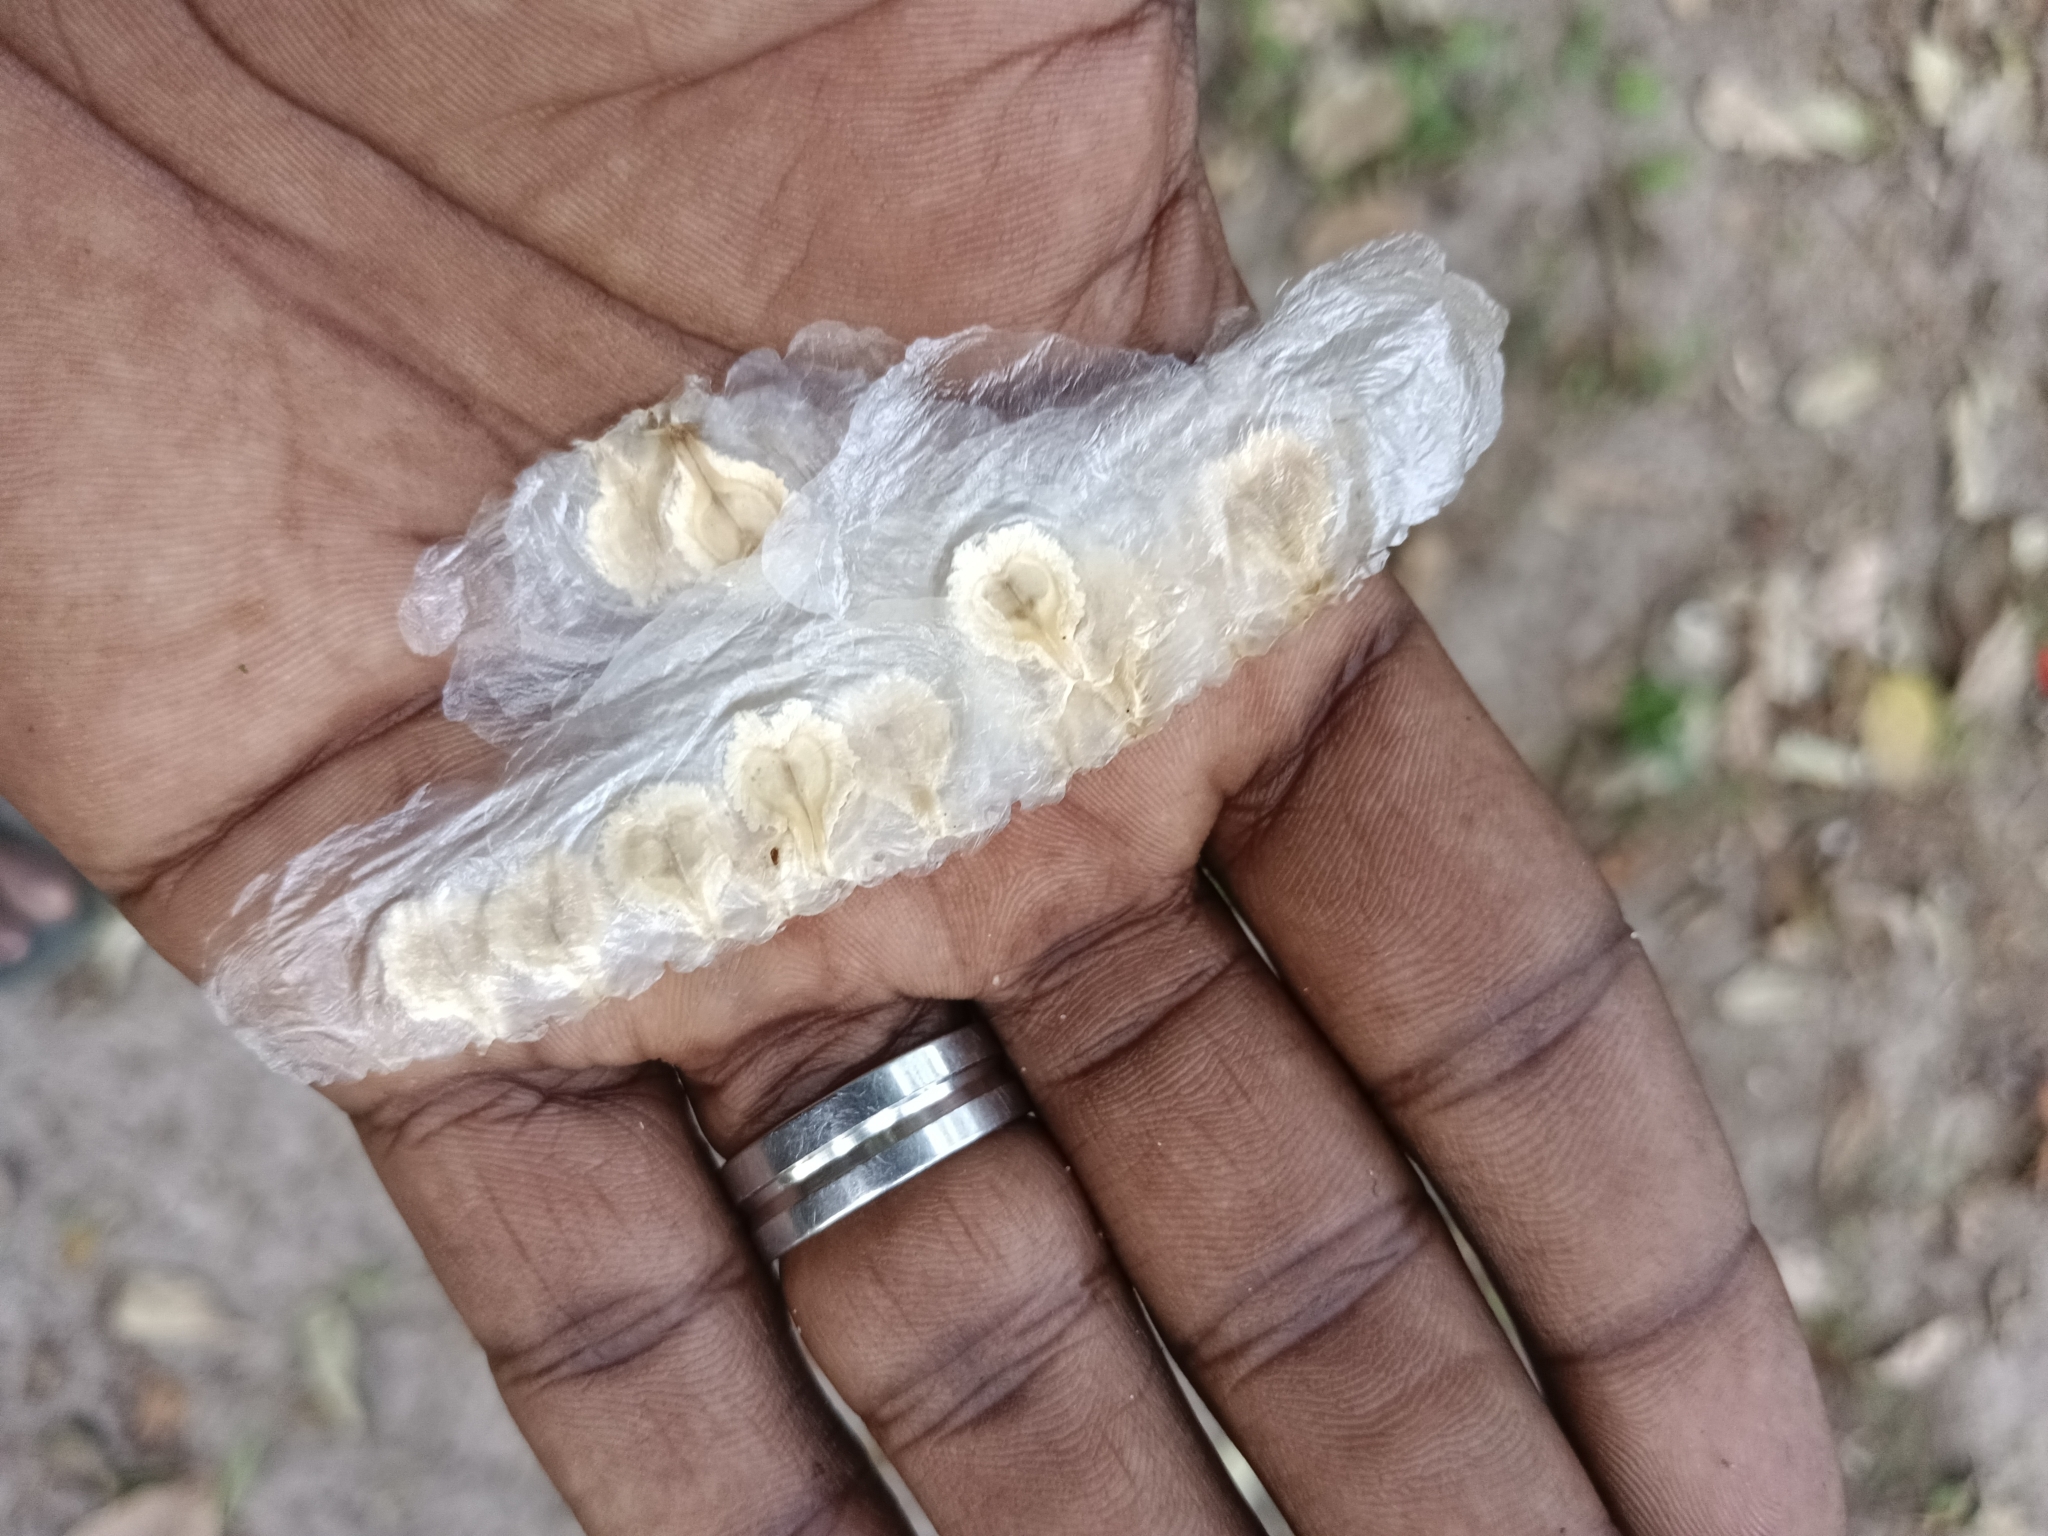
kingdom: Plantae
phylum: Tracheophyta
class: Magnoliopsida
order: Lamiales
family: Bignoniaceae
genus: Spathodea
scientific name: Spathodea campanulata
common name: African tuliptree
